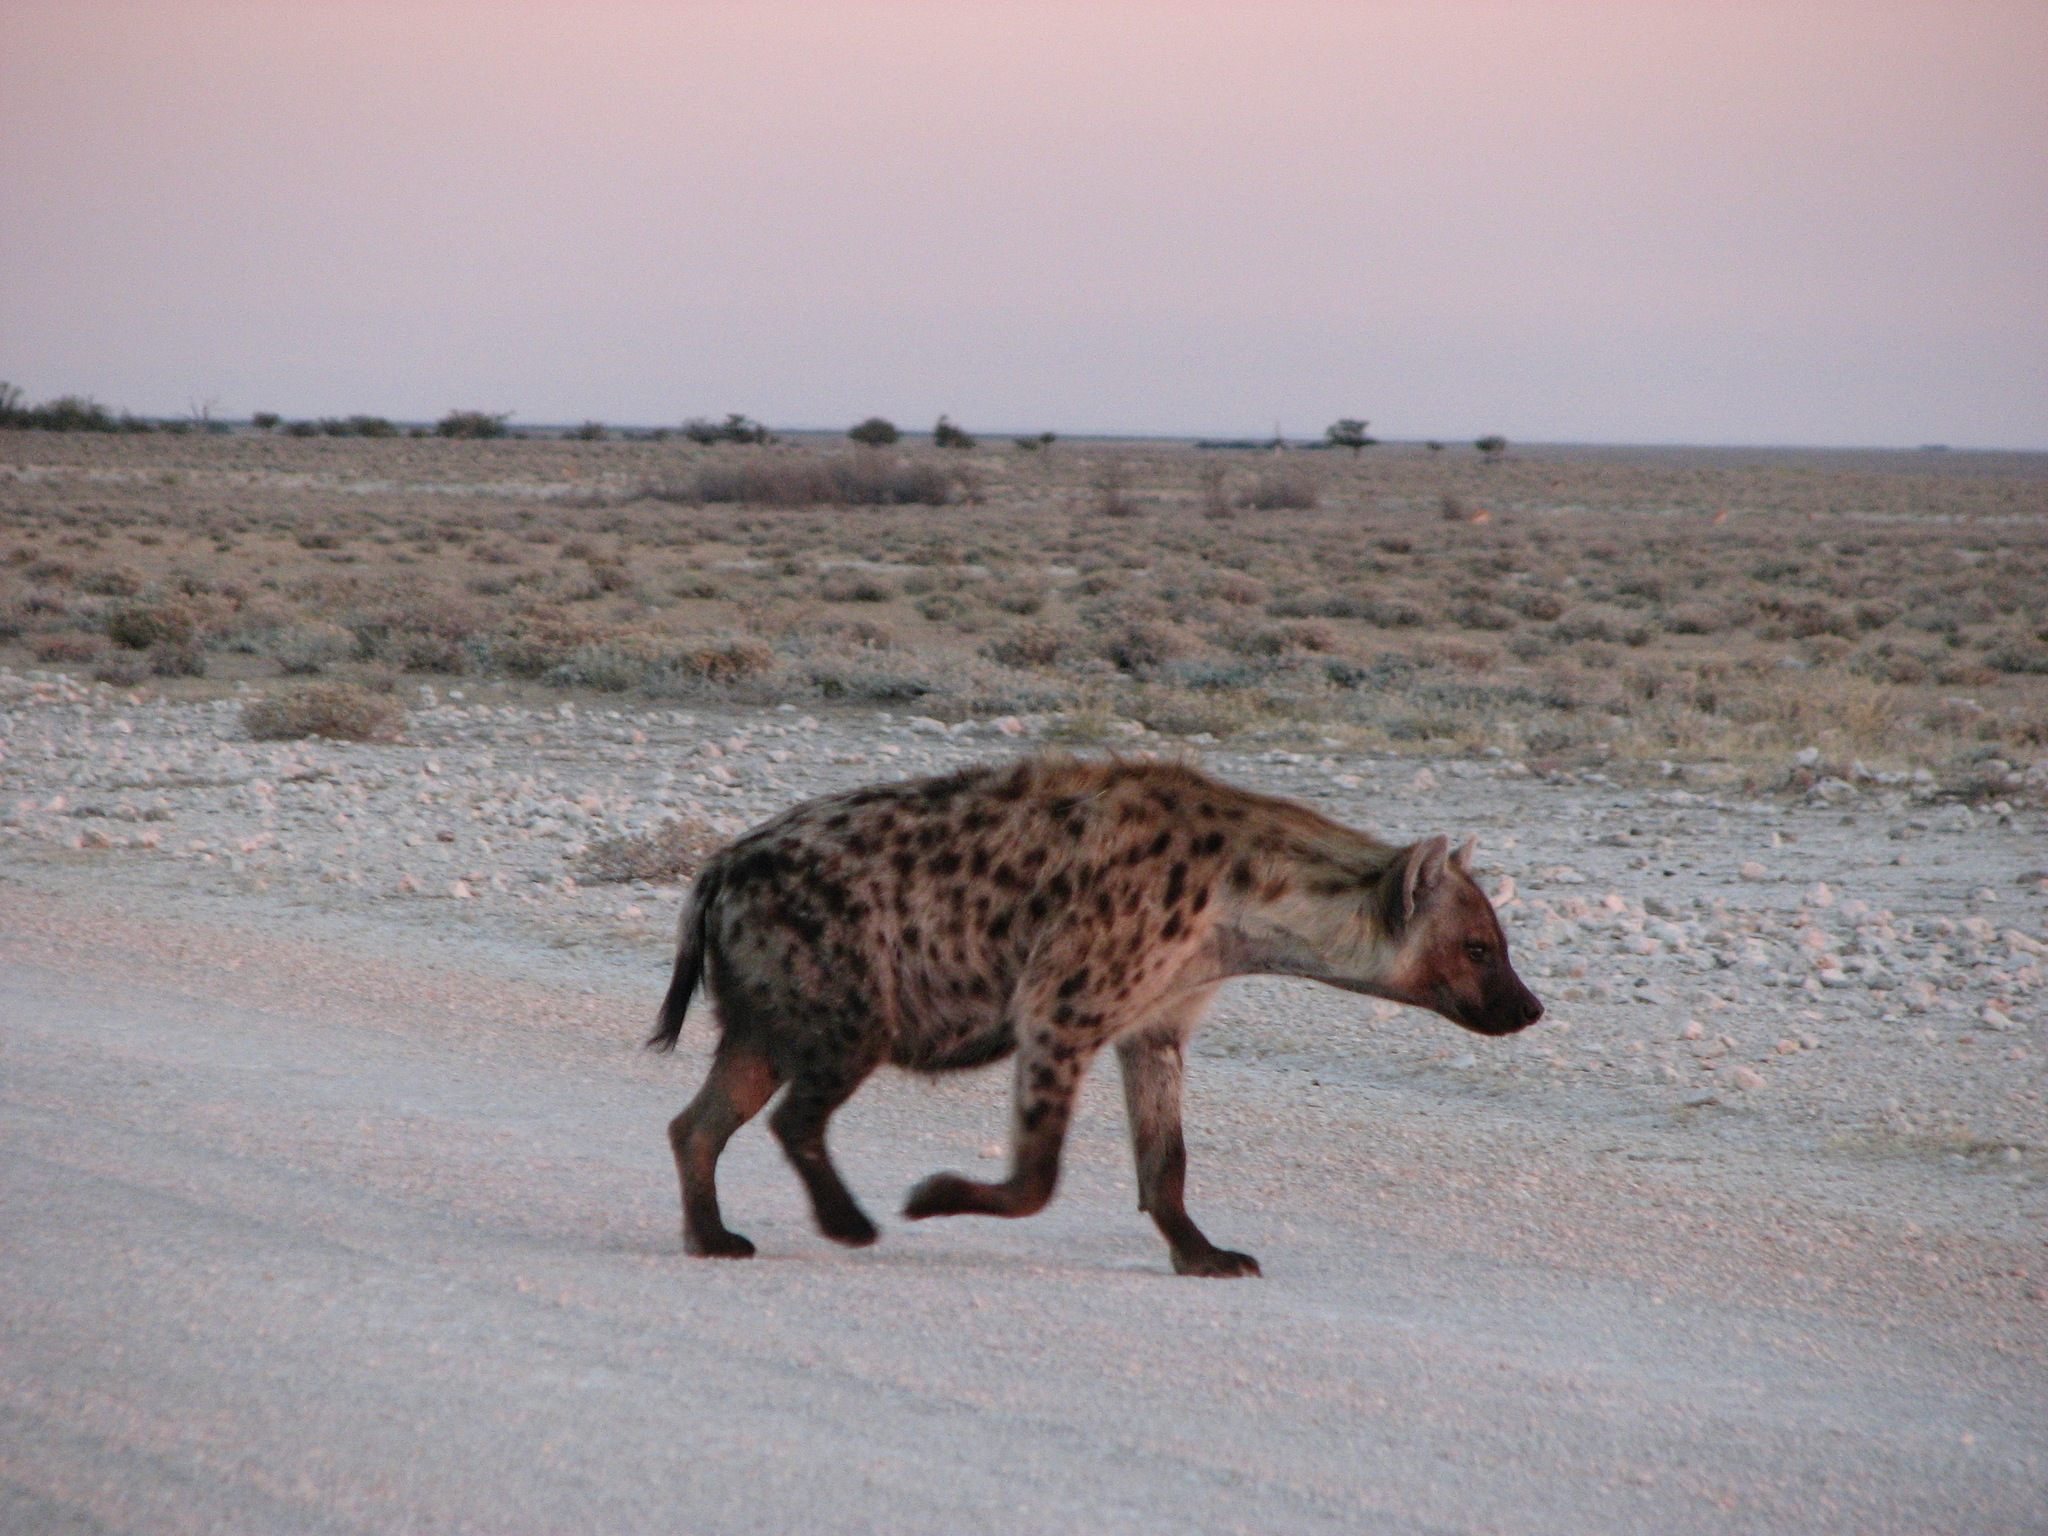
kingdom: Animalia
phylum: Chordata
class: Mammalia
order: Carnivora
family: Hyaenidae
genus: Crocuta
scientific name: Crocuta crocuta
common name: Spotted hyaena
